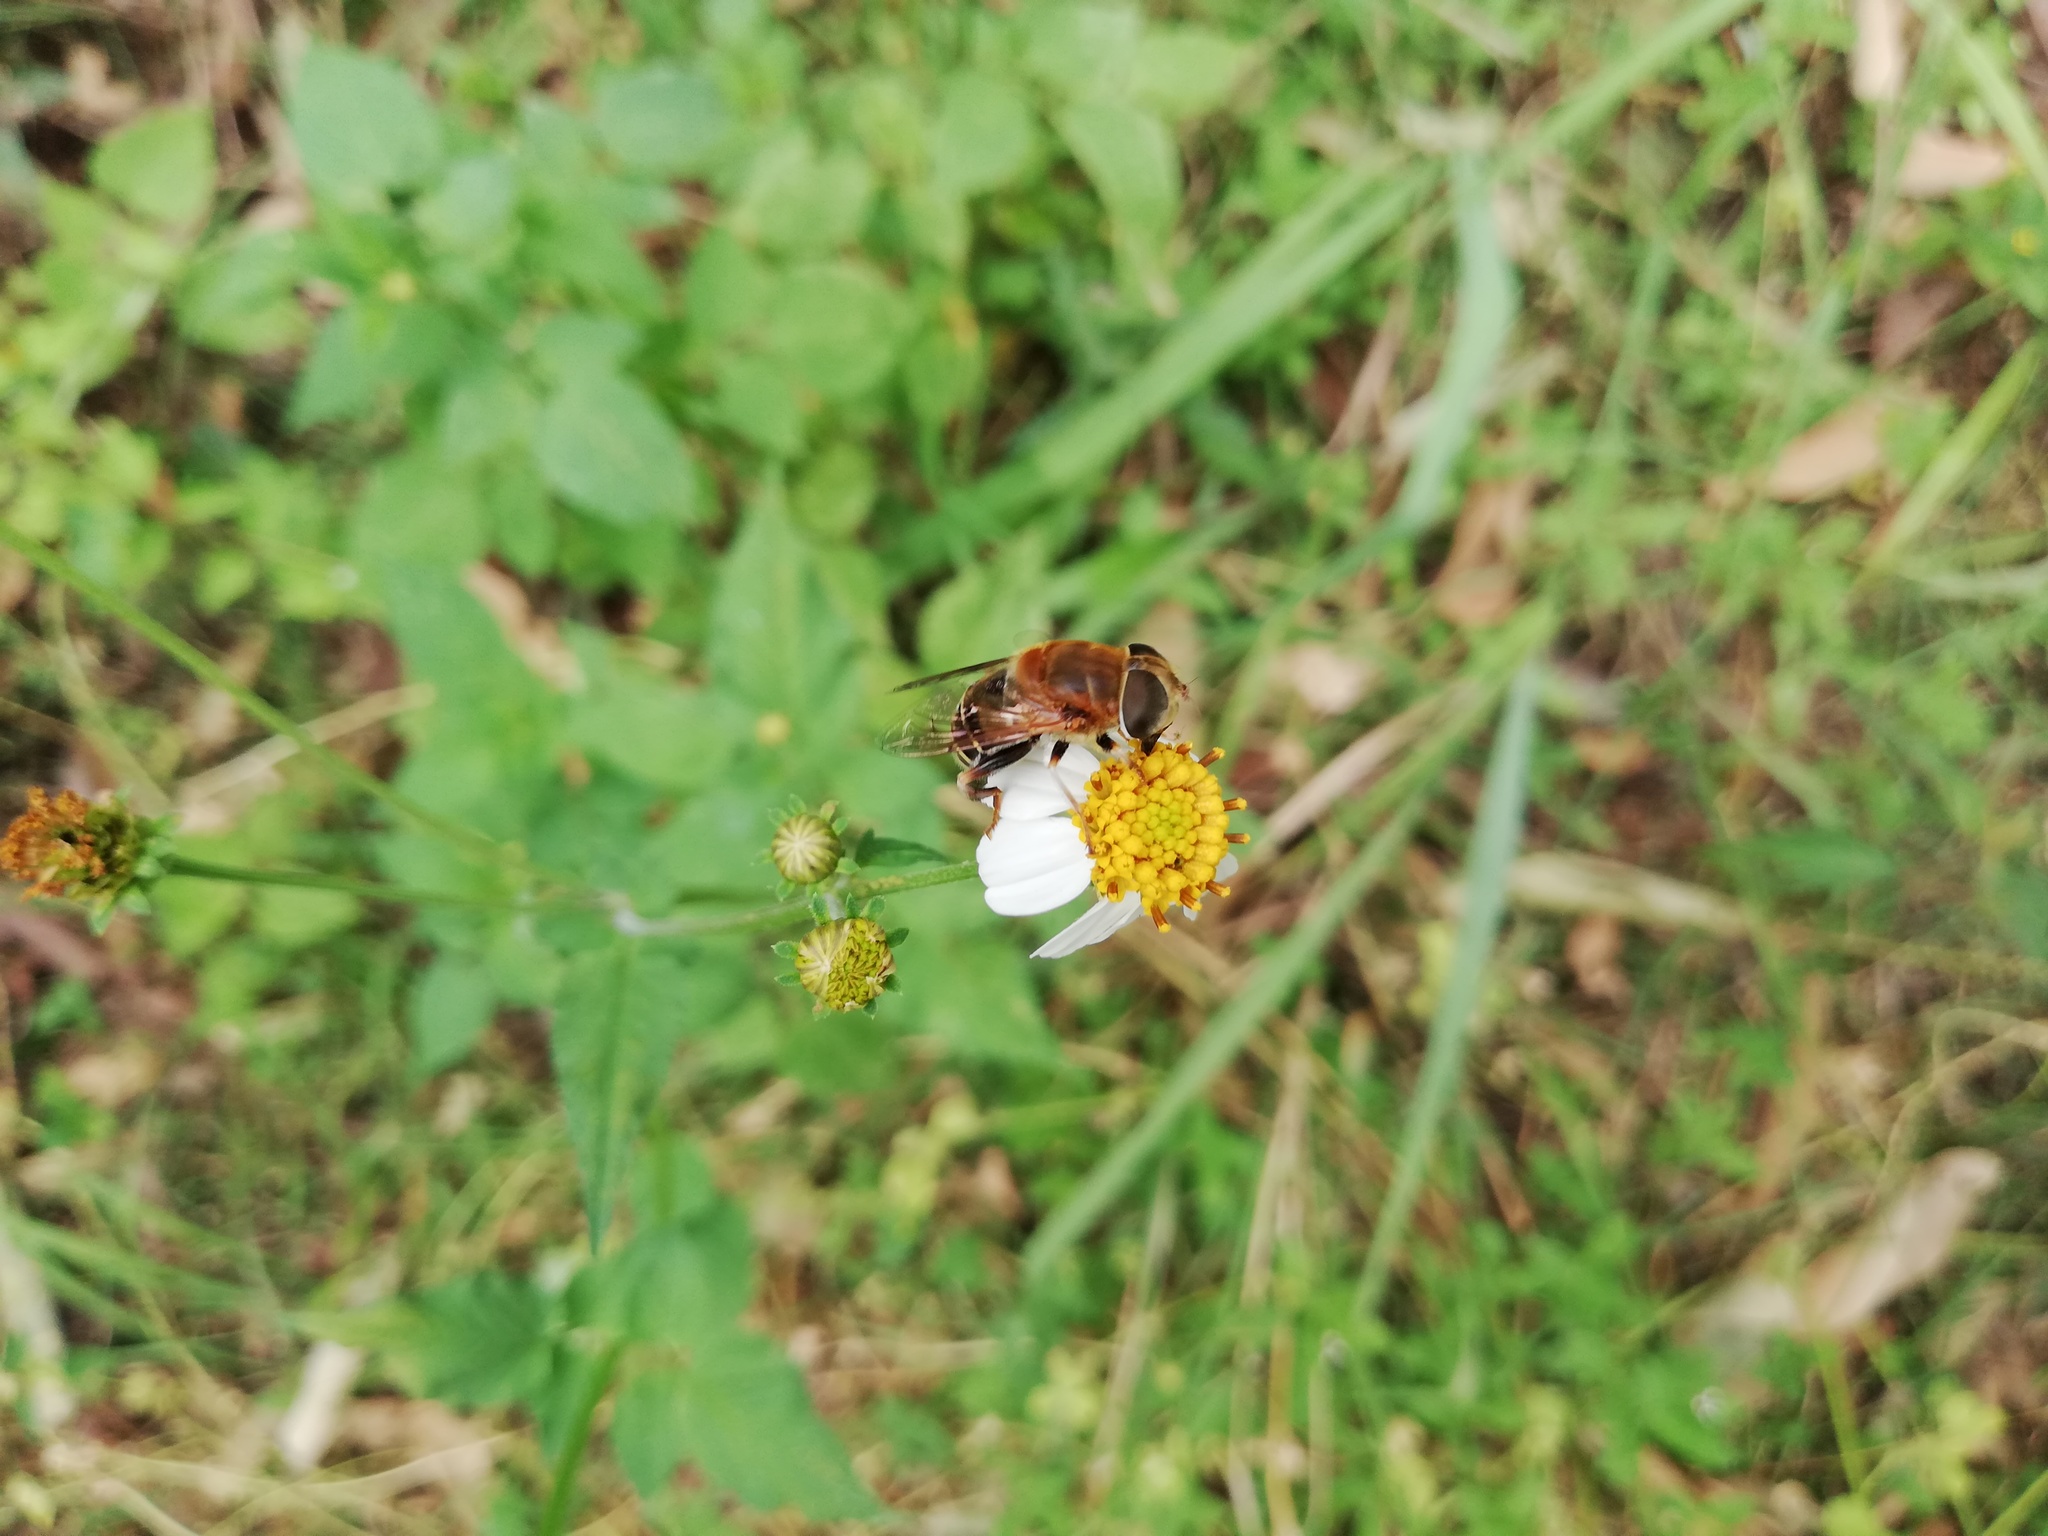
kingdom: Animalia
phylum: Arthropoda
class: Insecta
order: Diptera
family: Syrphidae
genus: Palpada
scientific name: Palpada mexicana
